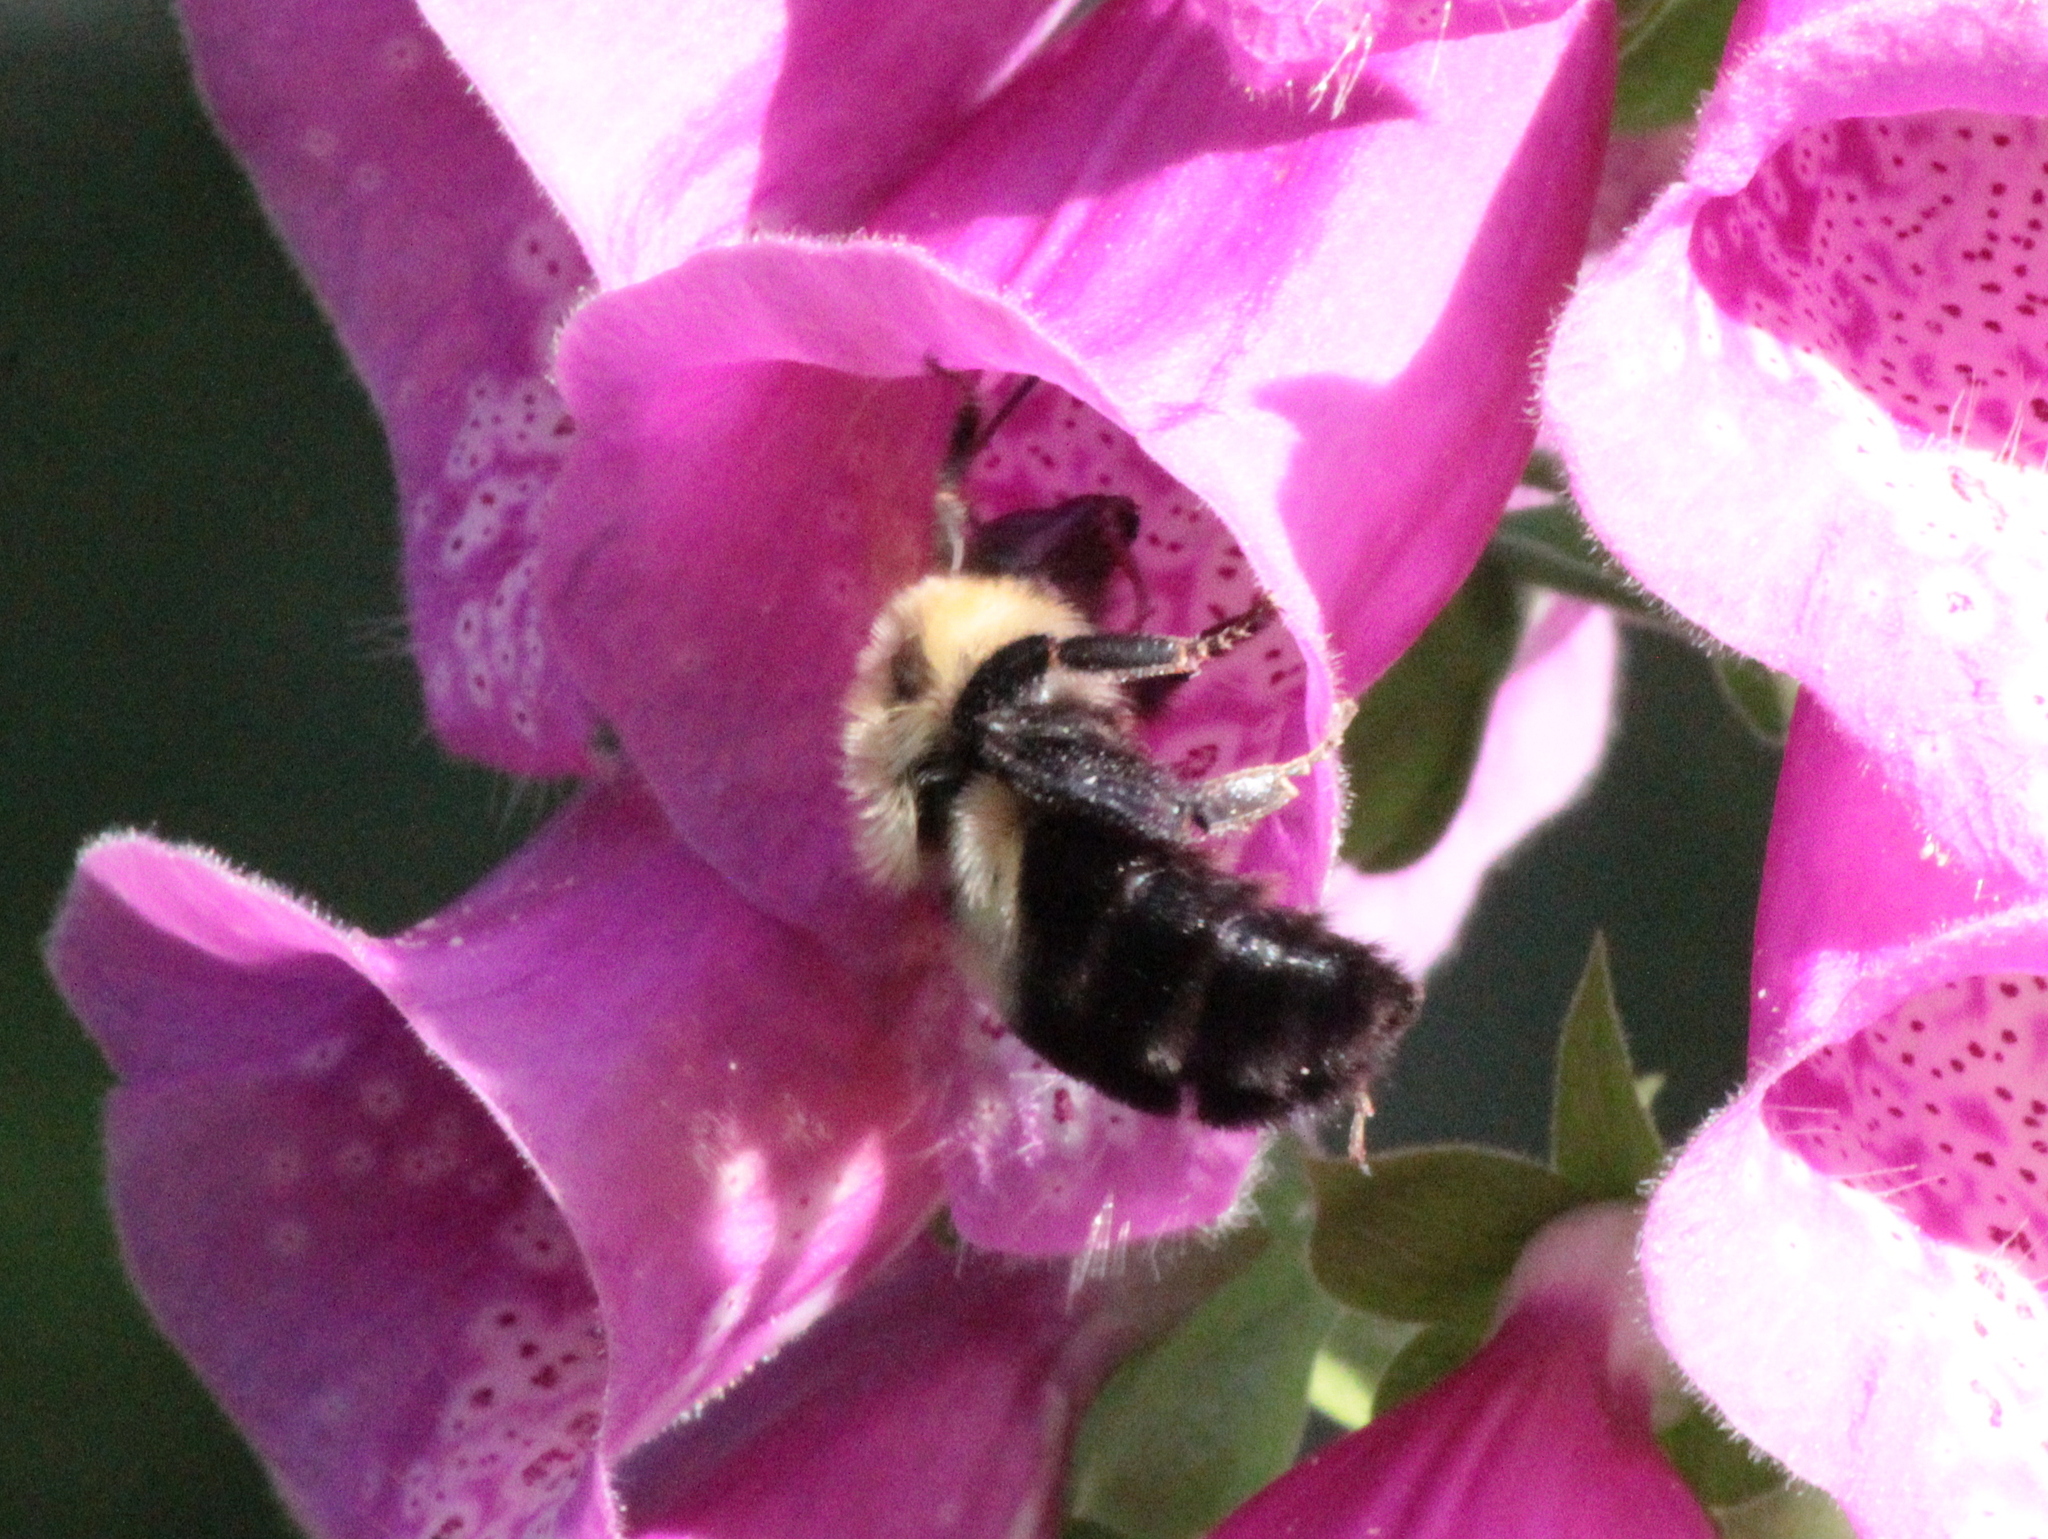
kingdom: Animalia
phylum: Arthropoda
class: Insecta
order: Hymenoptera
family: Apidae
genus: Bombus
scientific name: Bombus bimaculatus
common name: Two-spotted bumble bee
